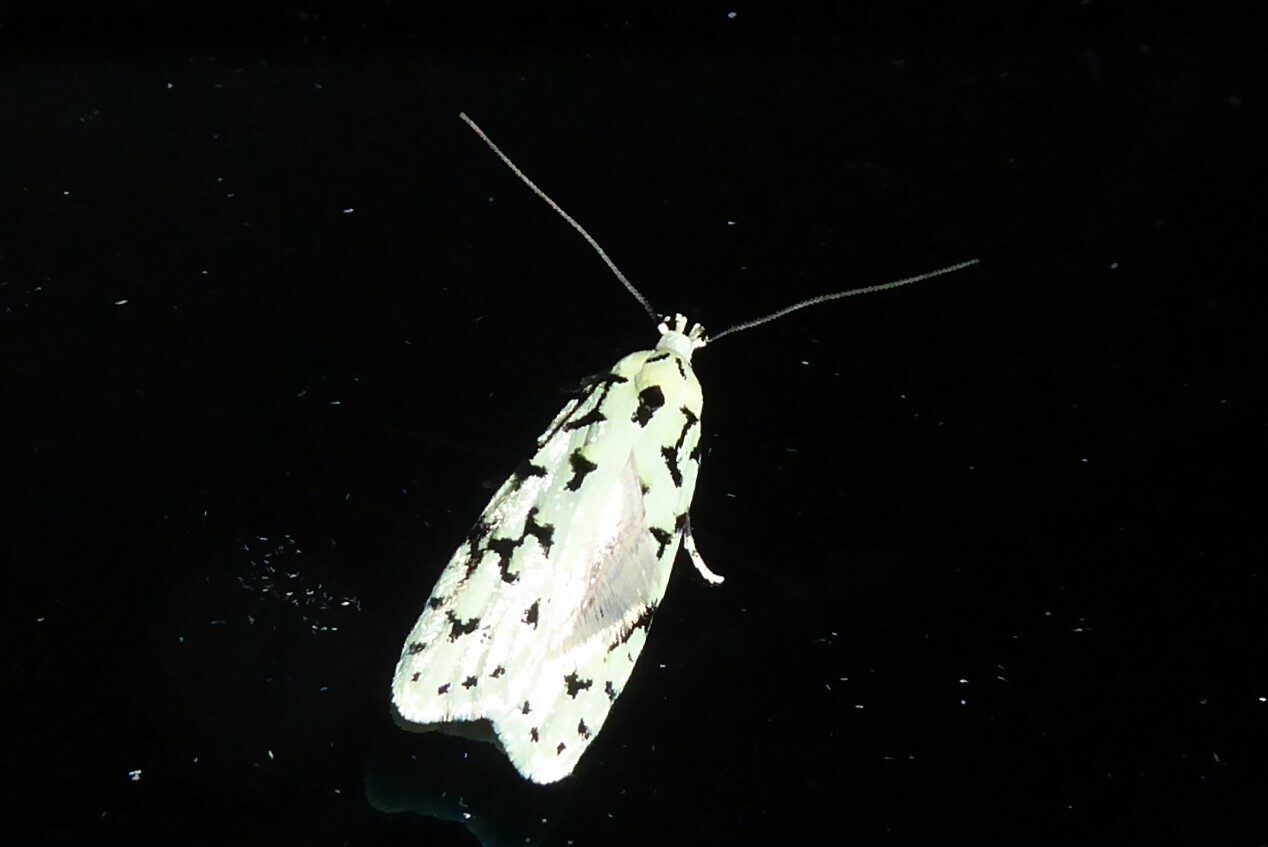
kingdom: Animalia
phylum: Arthropoda
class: Insecta
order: Lepidoptera
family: Oecophoridae
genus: Izatha
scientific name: Izatha huttoni
